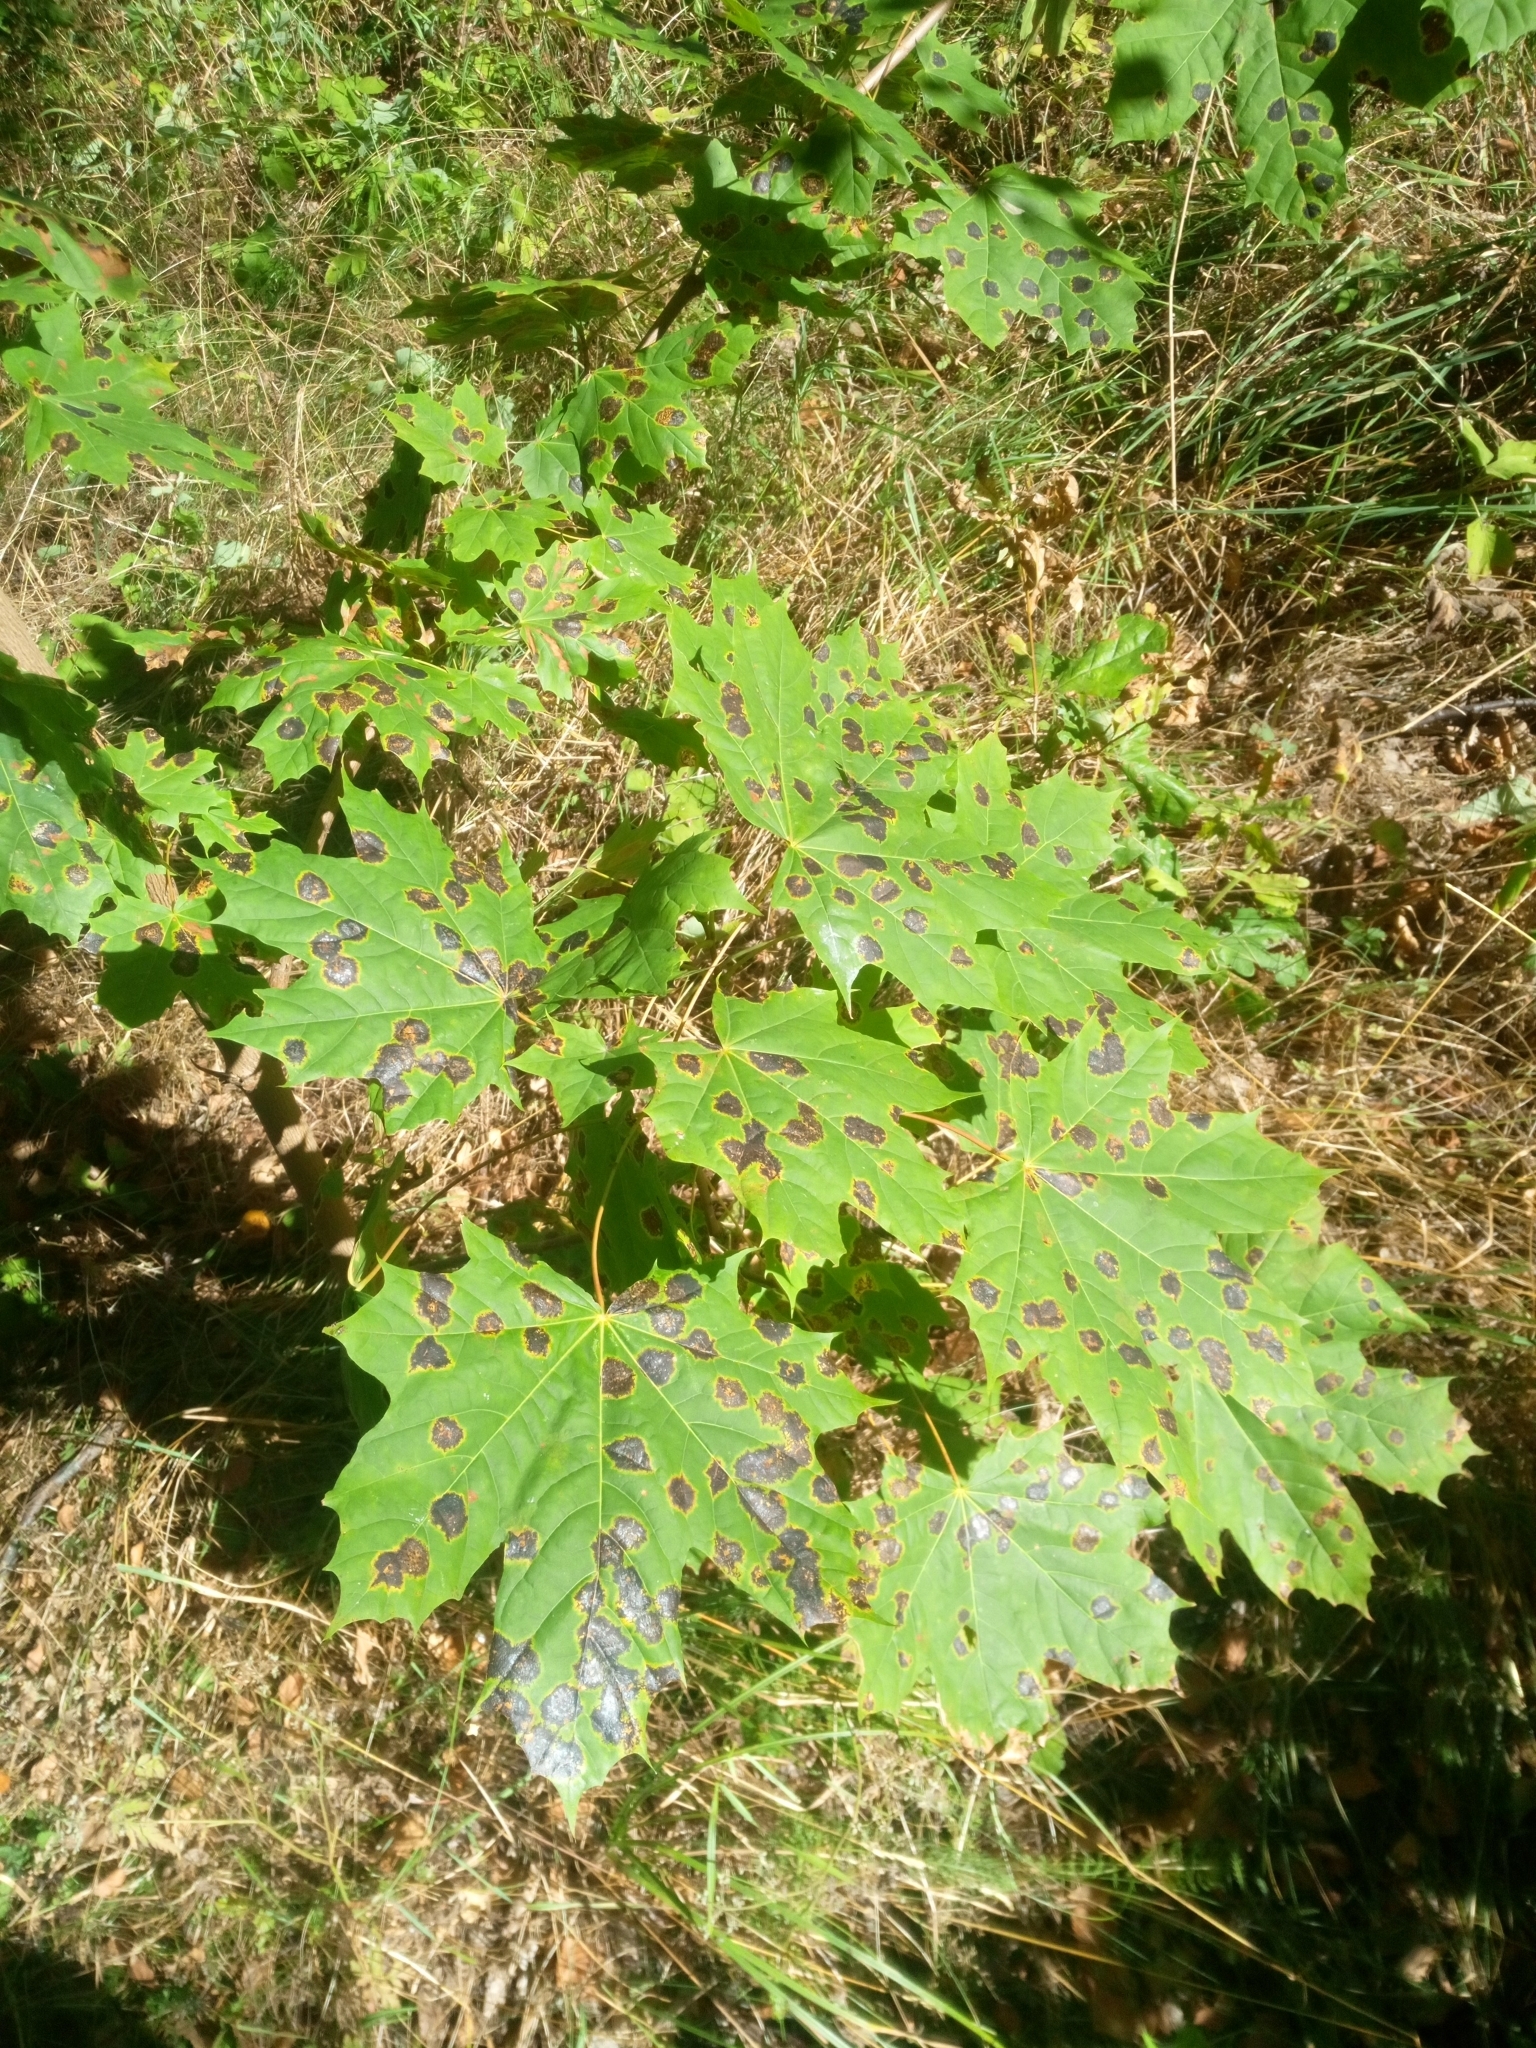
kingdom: Plantae
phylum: Tracheophyta
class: Magnoliopsida
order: Sapindales
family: Sapindaceae
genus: Acer
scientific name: Acer platanoides
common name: Norway maple
